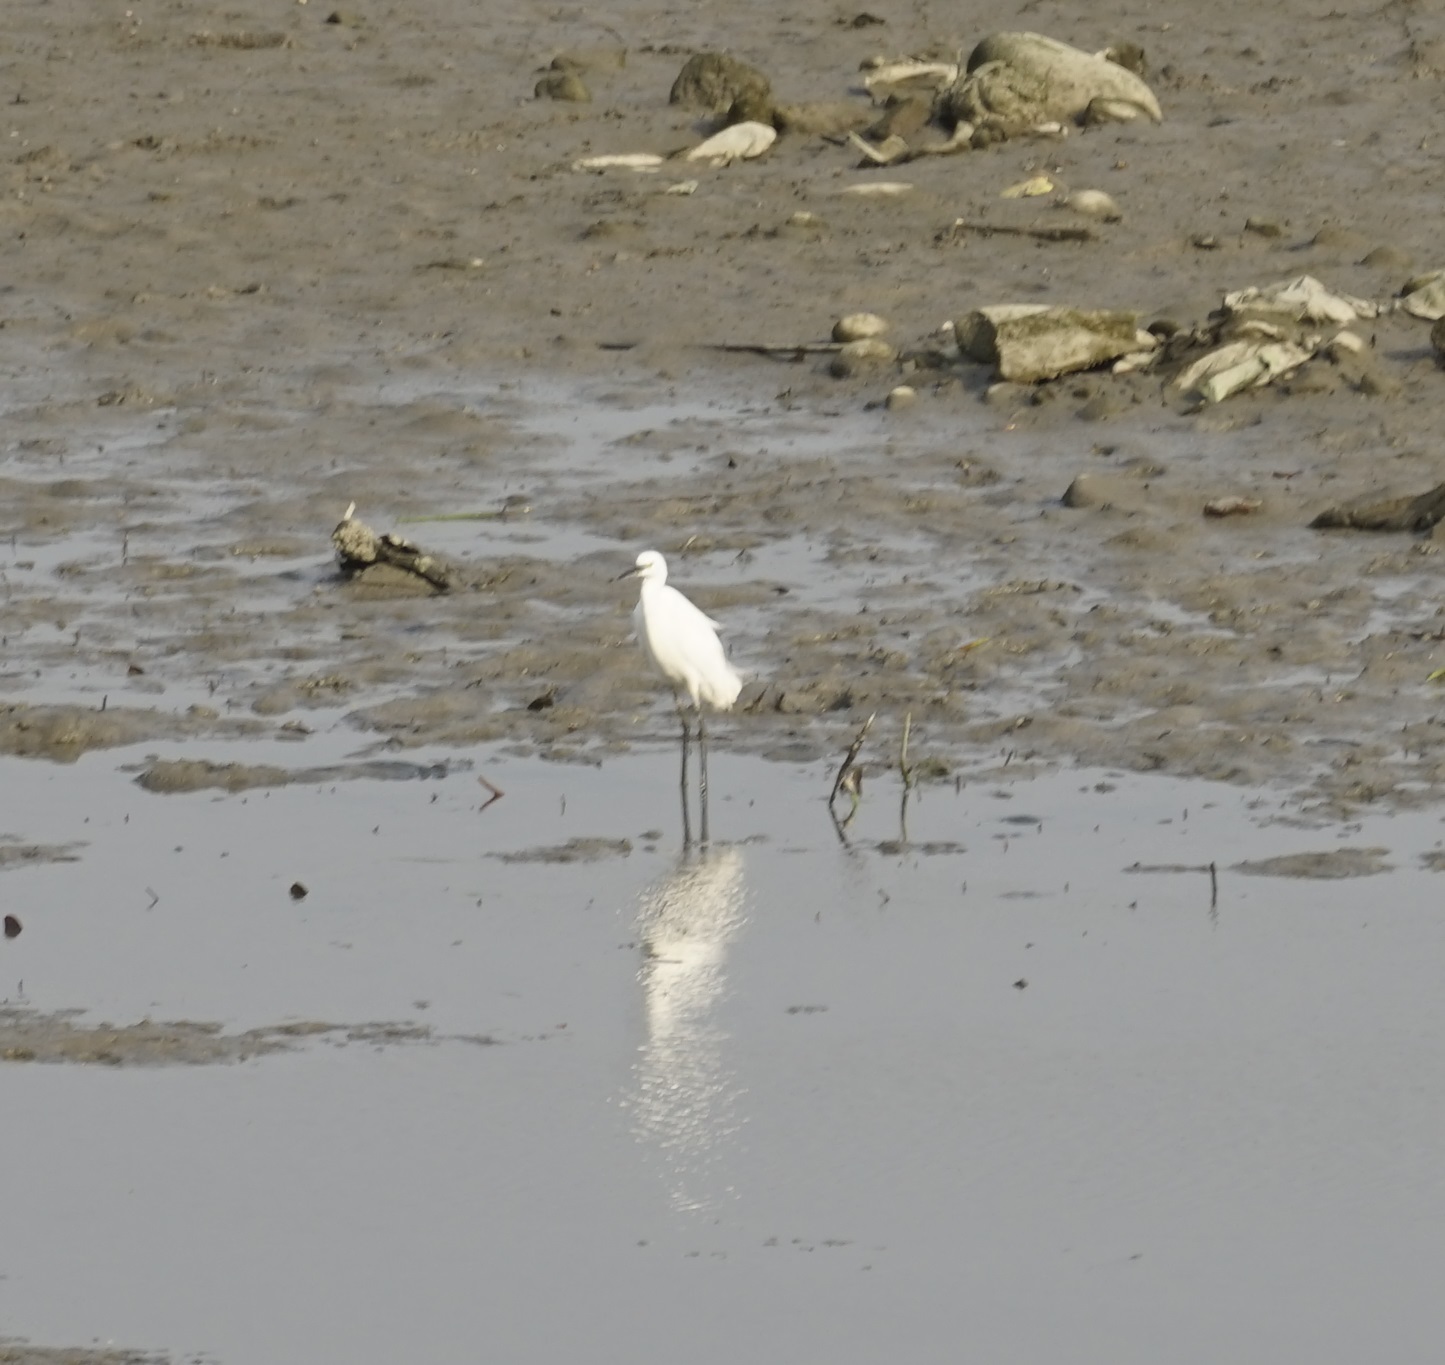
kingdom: Animalia
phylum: Chordata
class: Aves
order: Pelecaniformes
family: Ardeidae
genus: Egretta
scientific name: Egretta garzetta
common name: Little egret
